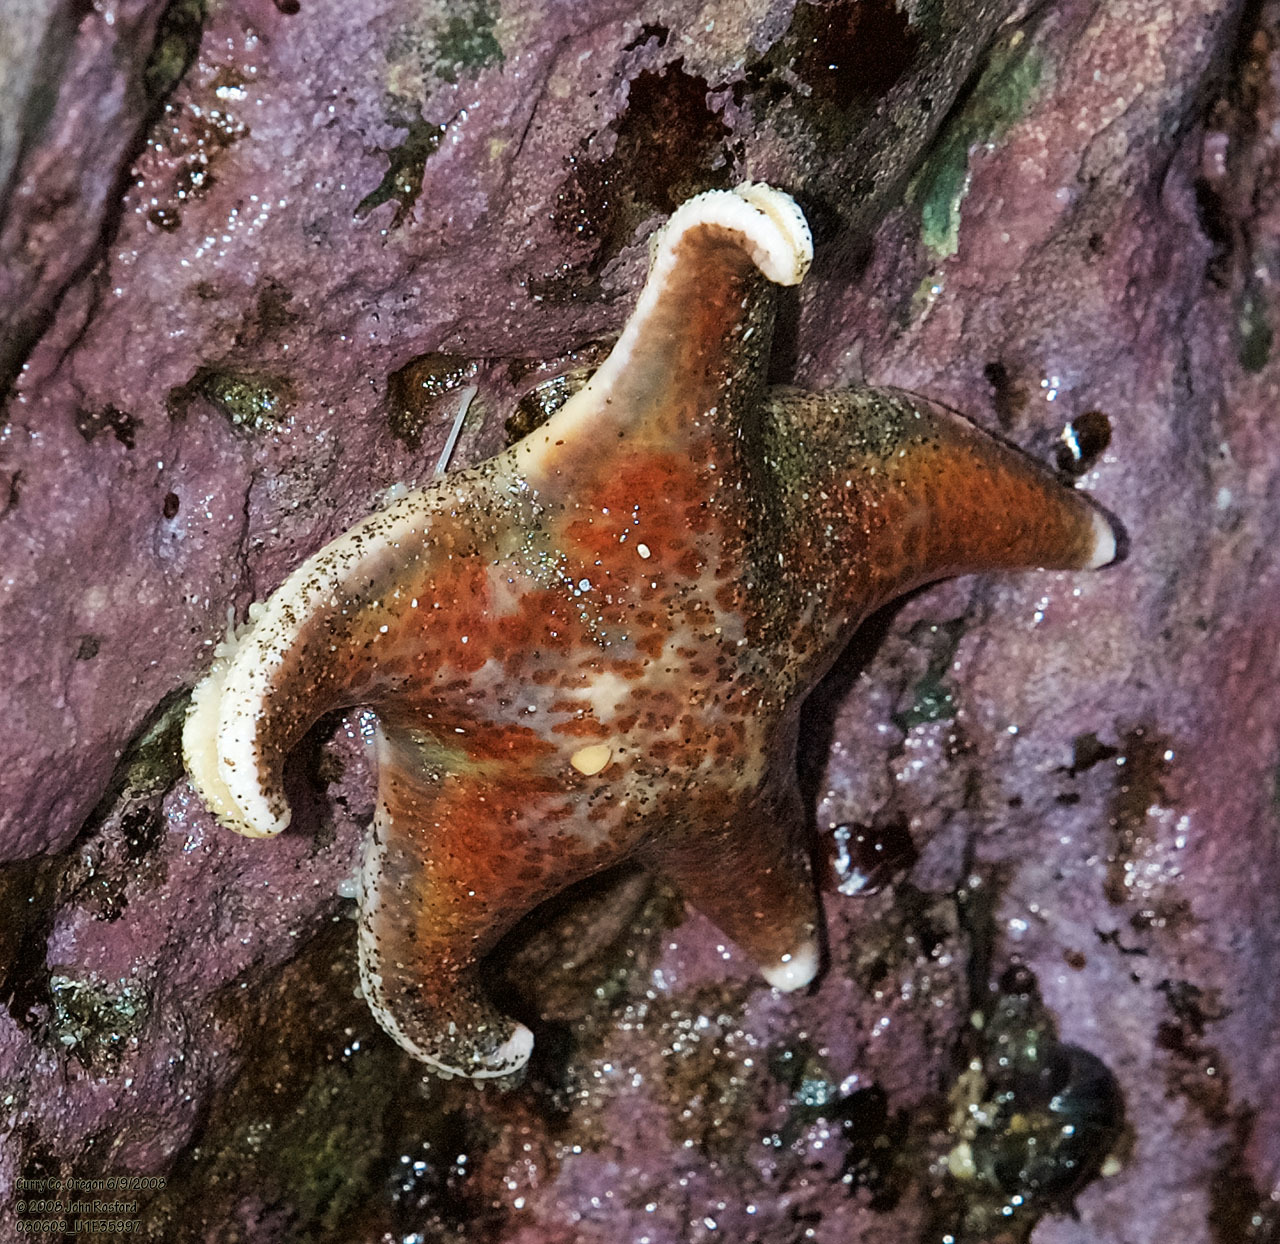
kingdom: Animalia
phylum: Echinodermata
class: Asteroidea
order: Valvatida
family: Asteropseidae
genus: Dermasterias
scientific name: Dermasterias imbricata
